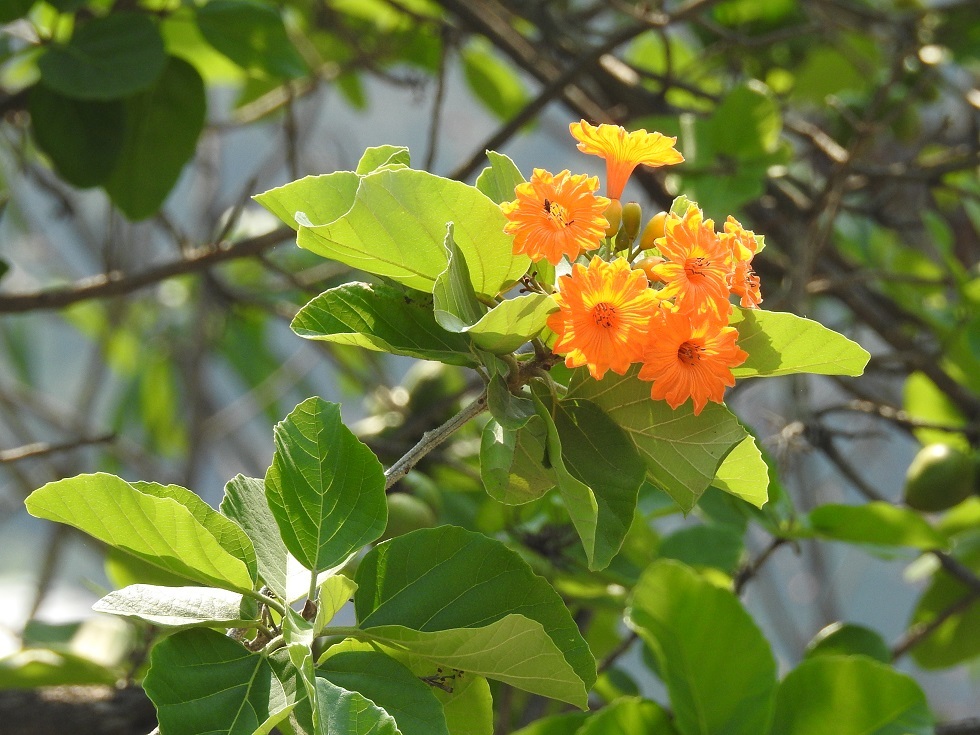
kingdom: Plantae
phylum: Tracheophyta
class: Magnoliopsida
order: Boraginales
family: Cordiaceae
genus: Cordia
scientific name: Cordia dodecandra
